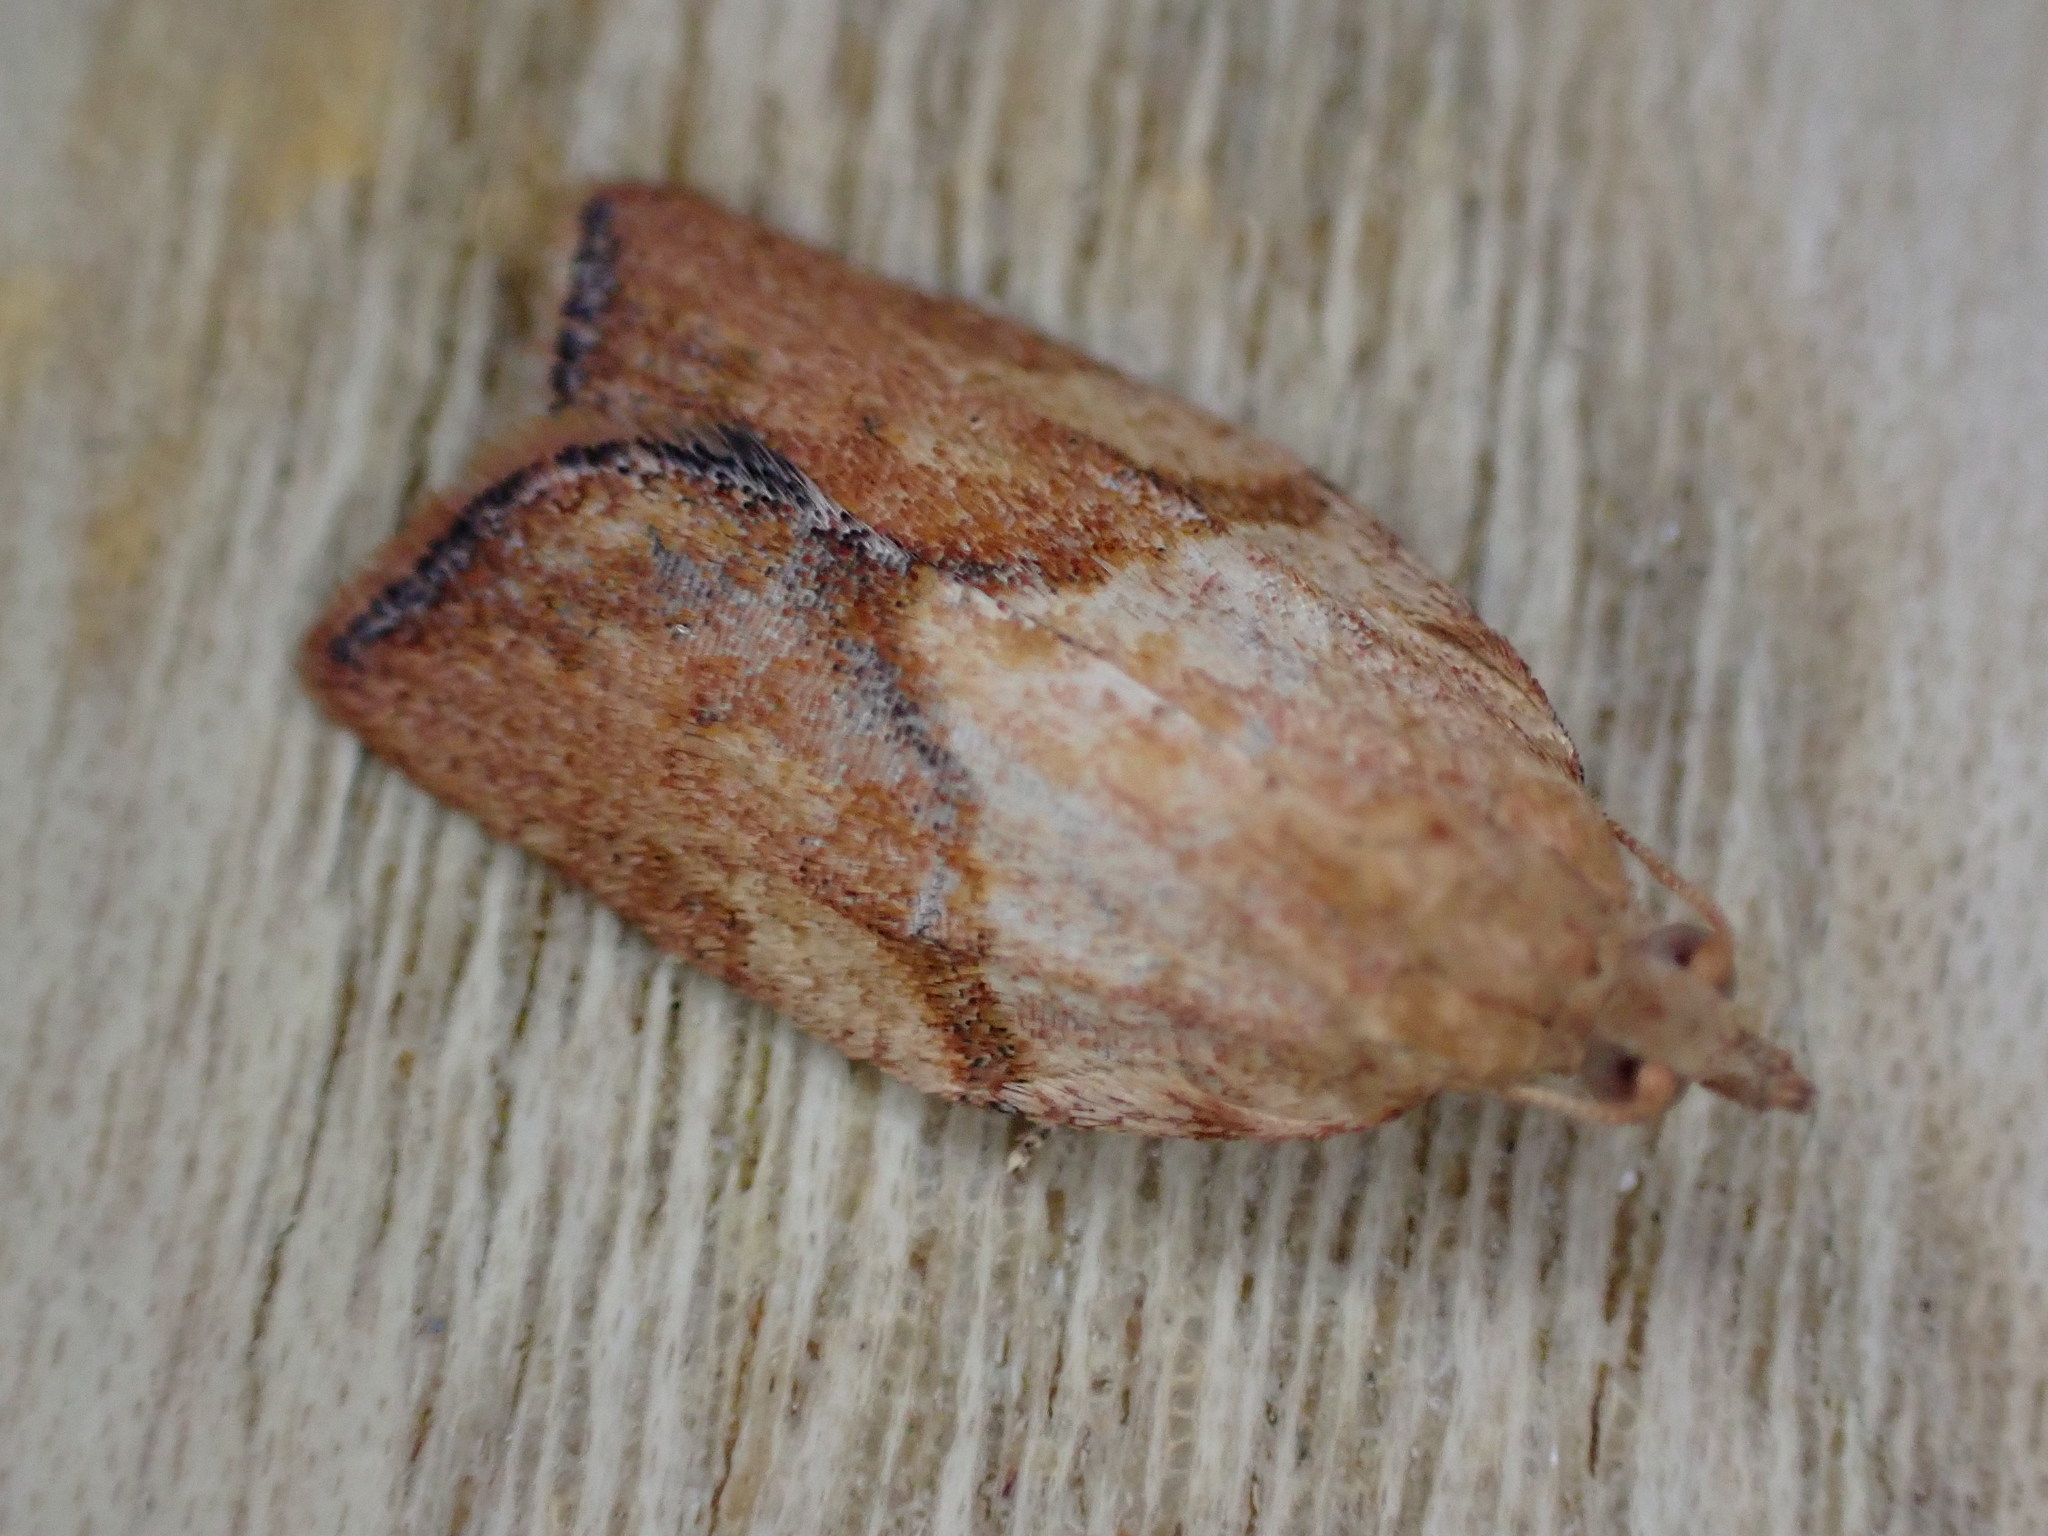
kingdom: Animalia
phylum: Arthropoda
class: Insecta
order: Lepidoptera
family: Tortricidae
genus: Epiphyas
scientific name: Epiphyas postvittana
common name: Light brown apple moth
